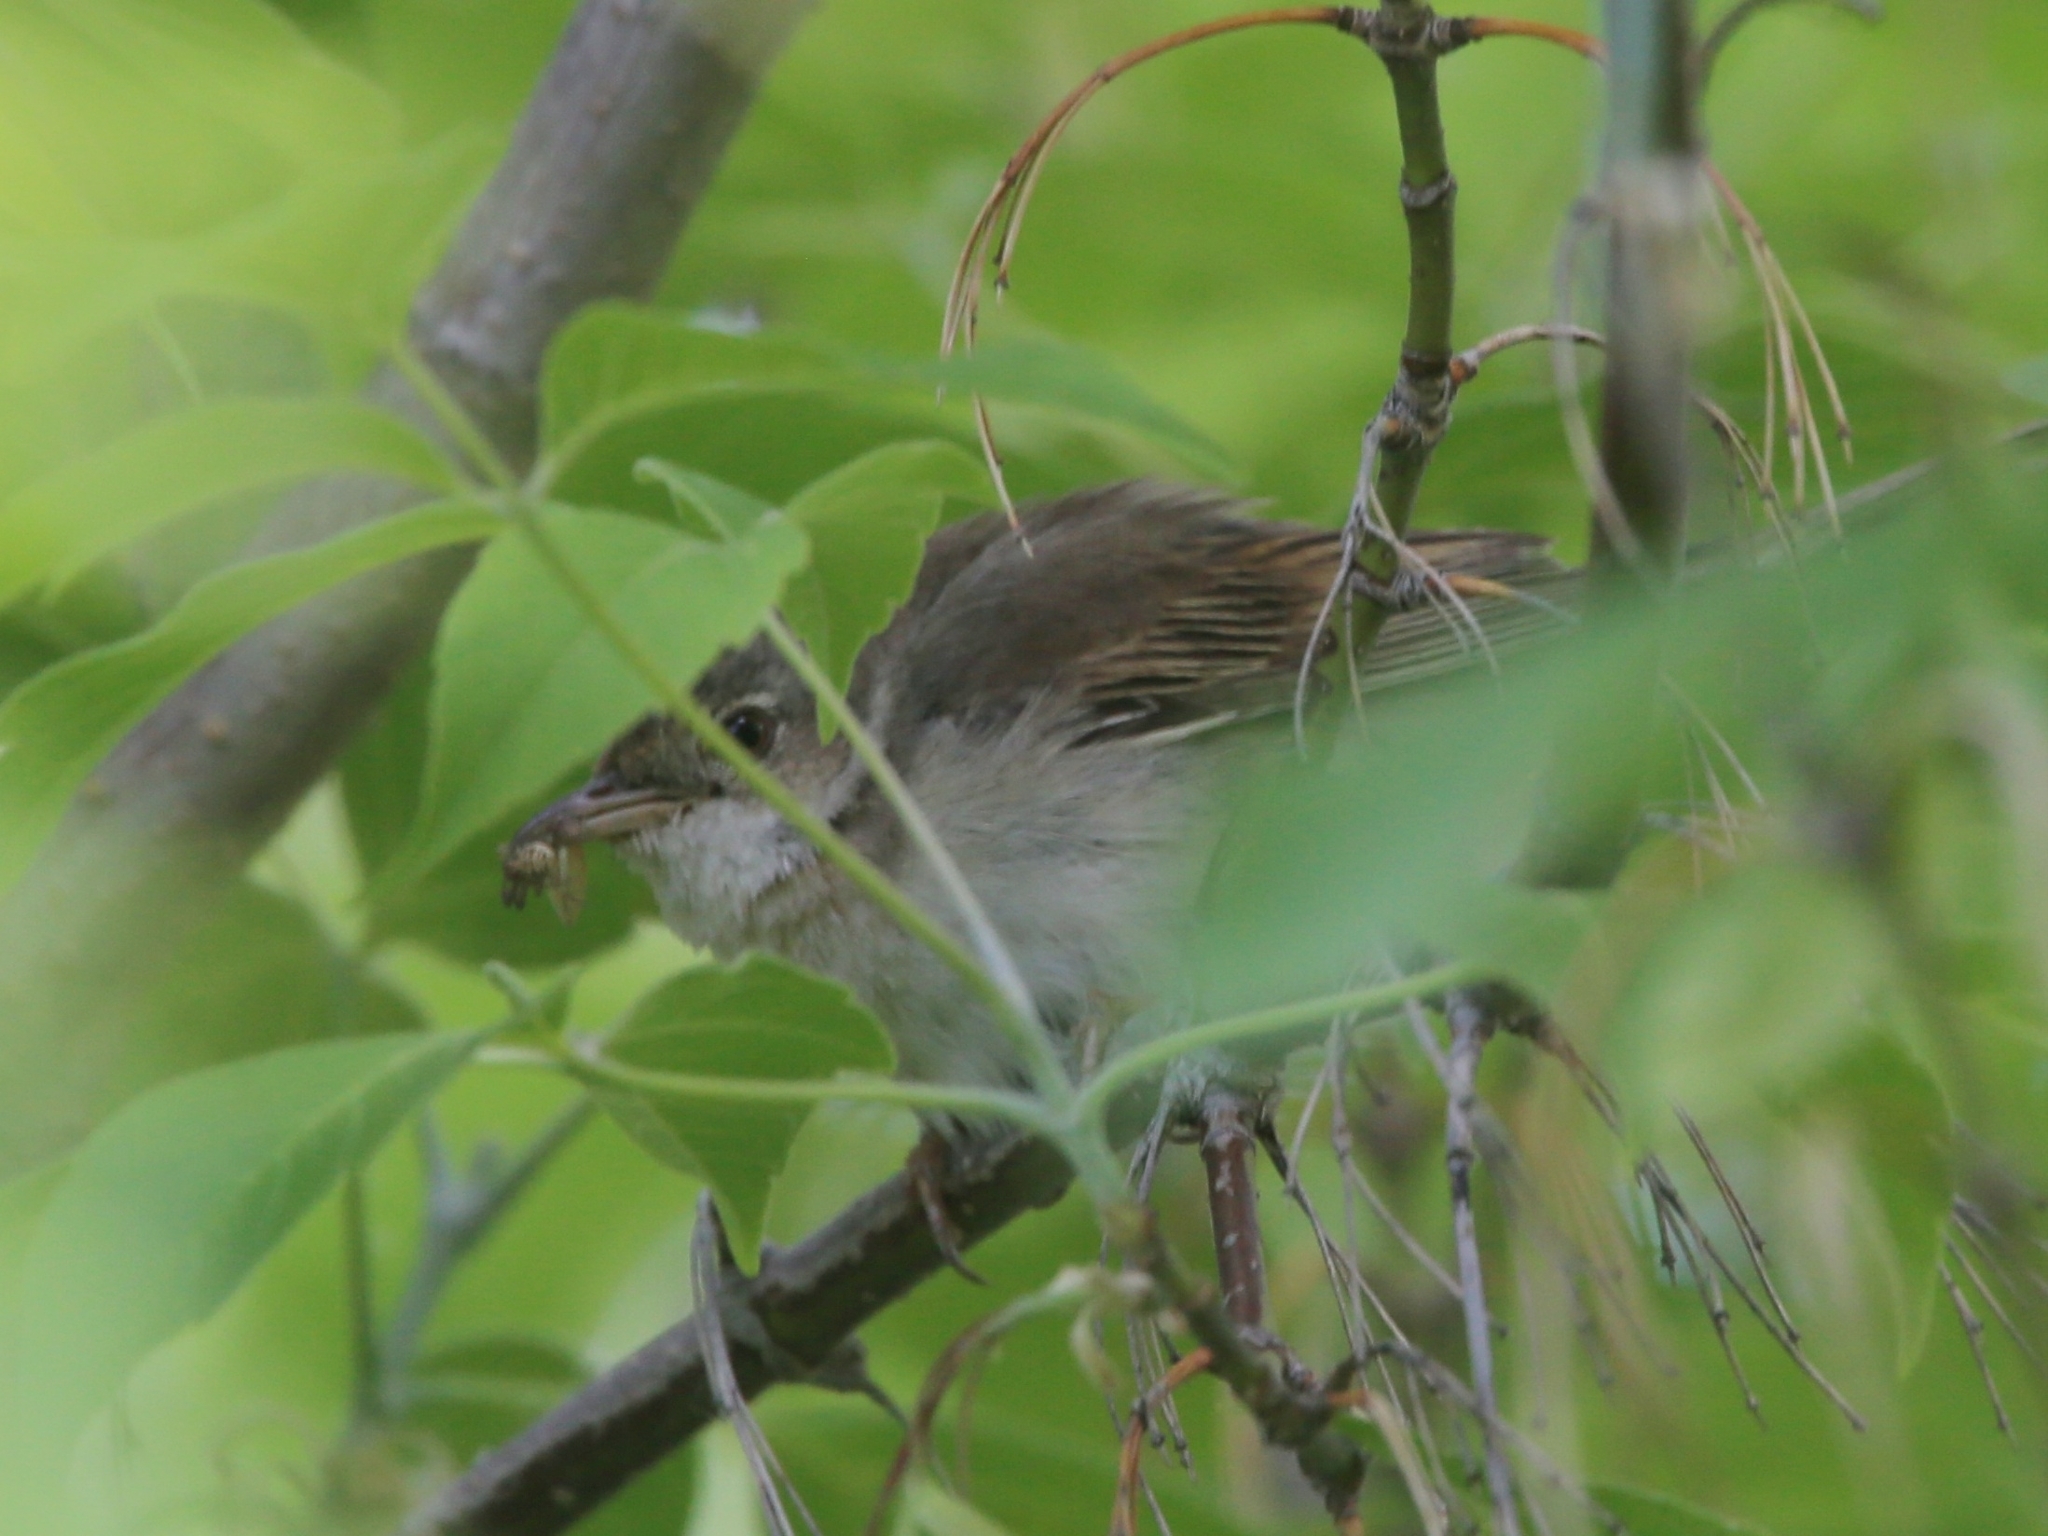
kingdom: Animalia
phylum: Chordata
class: Aves
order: Passeriformes
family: Sylviidae
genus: Sylvia
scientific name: Sylvia communis
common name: Common whitethroat
